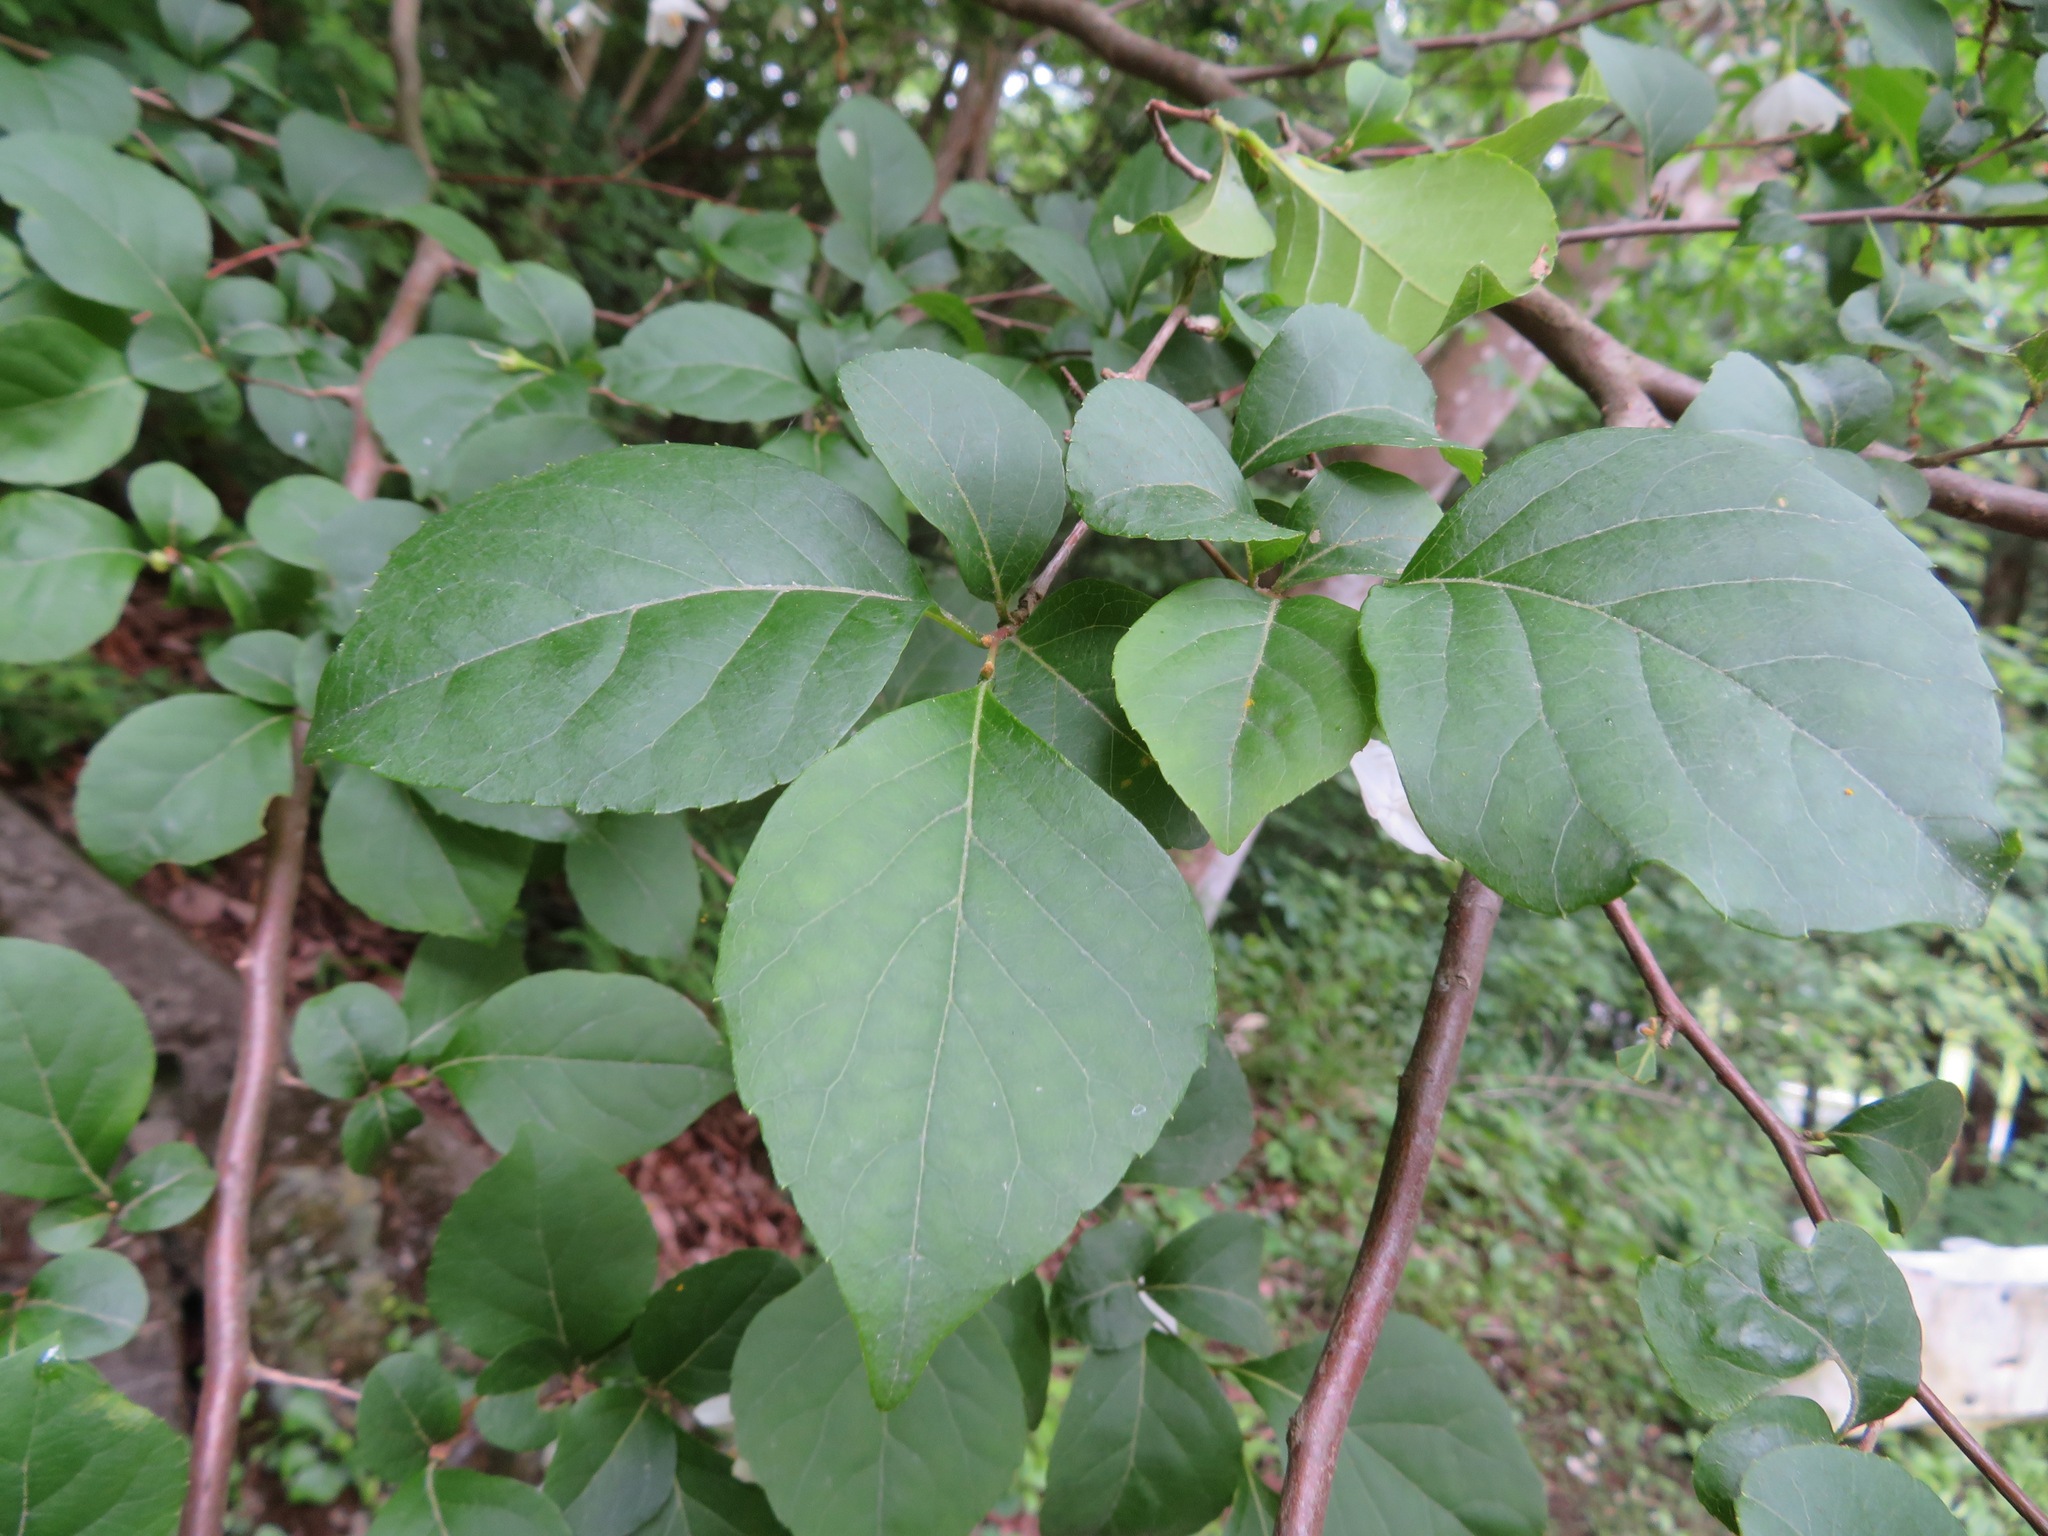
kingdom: Plantae
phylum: Tracheophyta
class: Magnoliopsida
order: Ericales
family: Styracaceae
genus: Styrax
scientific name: Styrax japonicus
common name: Japanese snowbell
